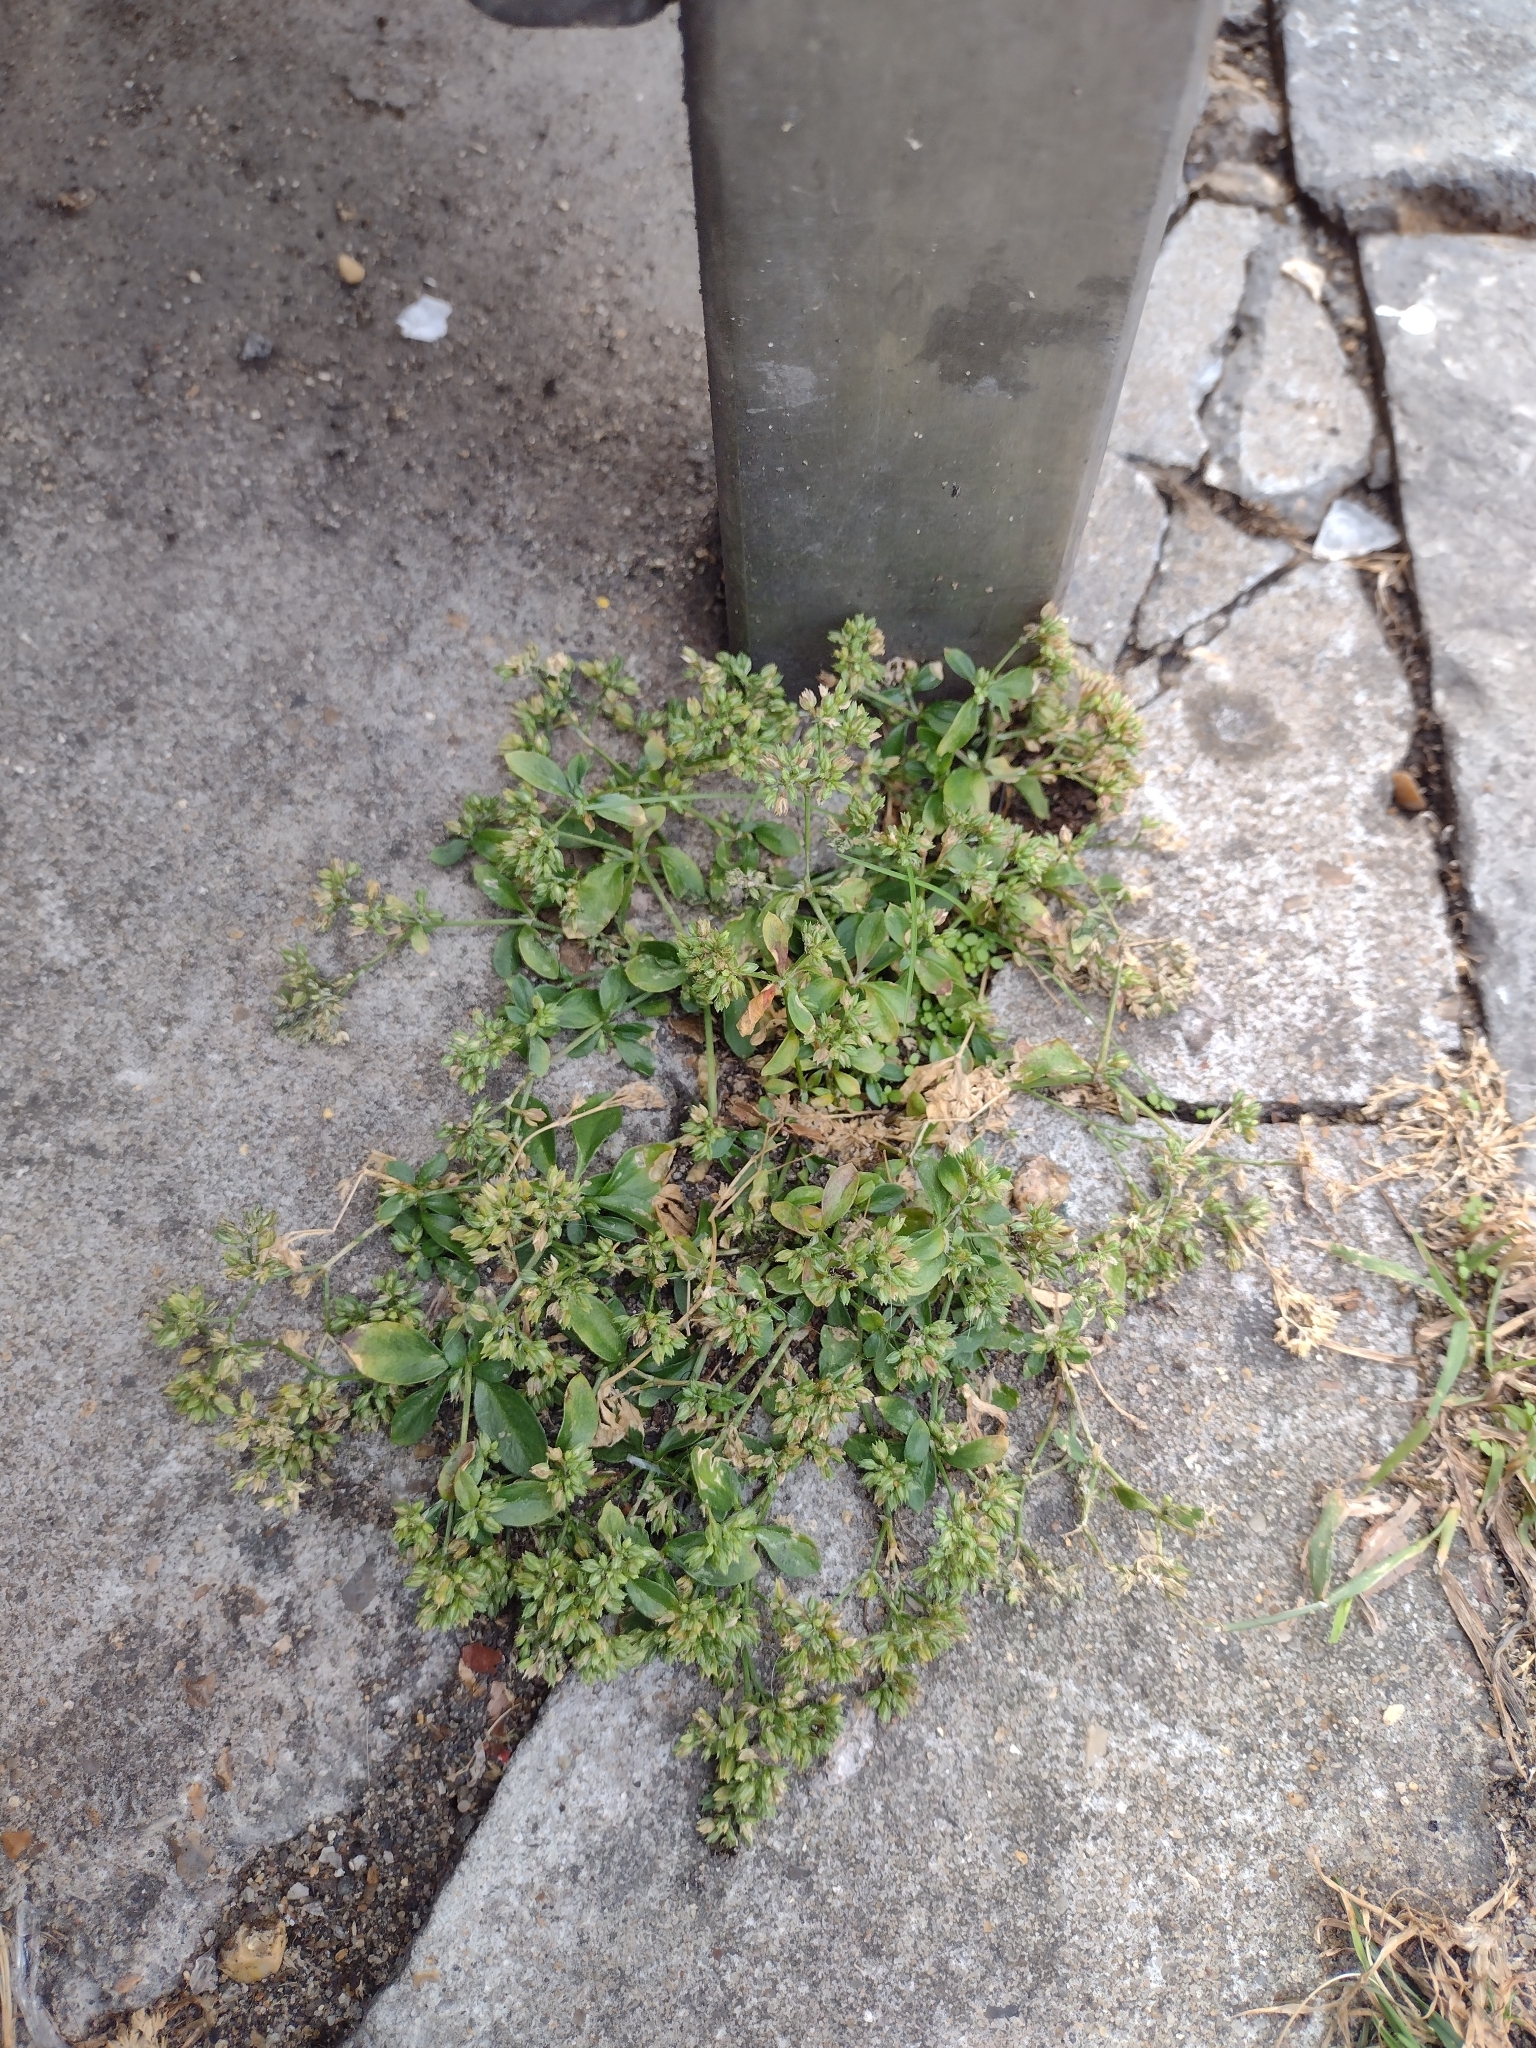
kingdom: Plantae
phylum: Tracheophyta
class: Magnoliopsida
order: Caryophyllales
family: Caryophyllaceae
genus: Polycarpon
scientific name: Polycarpon tetraphyllum
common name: Four-leaved all-seed
